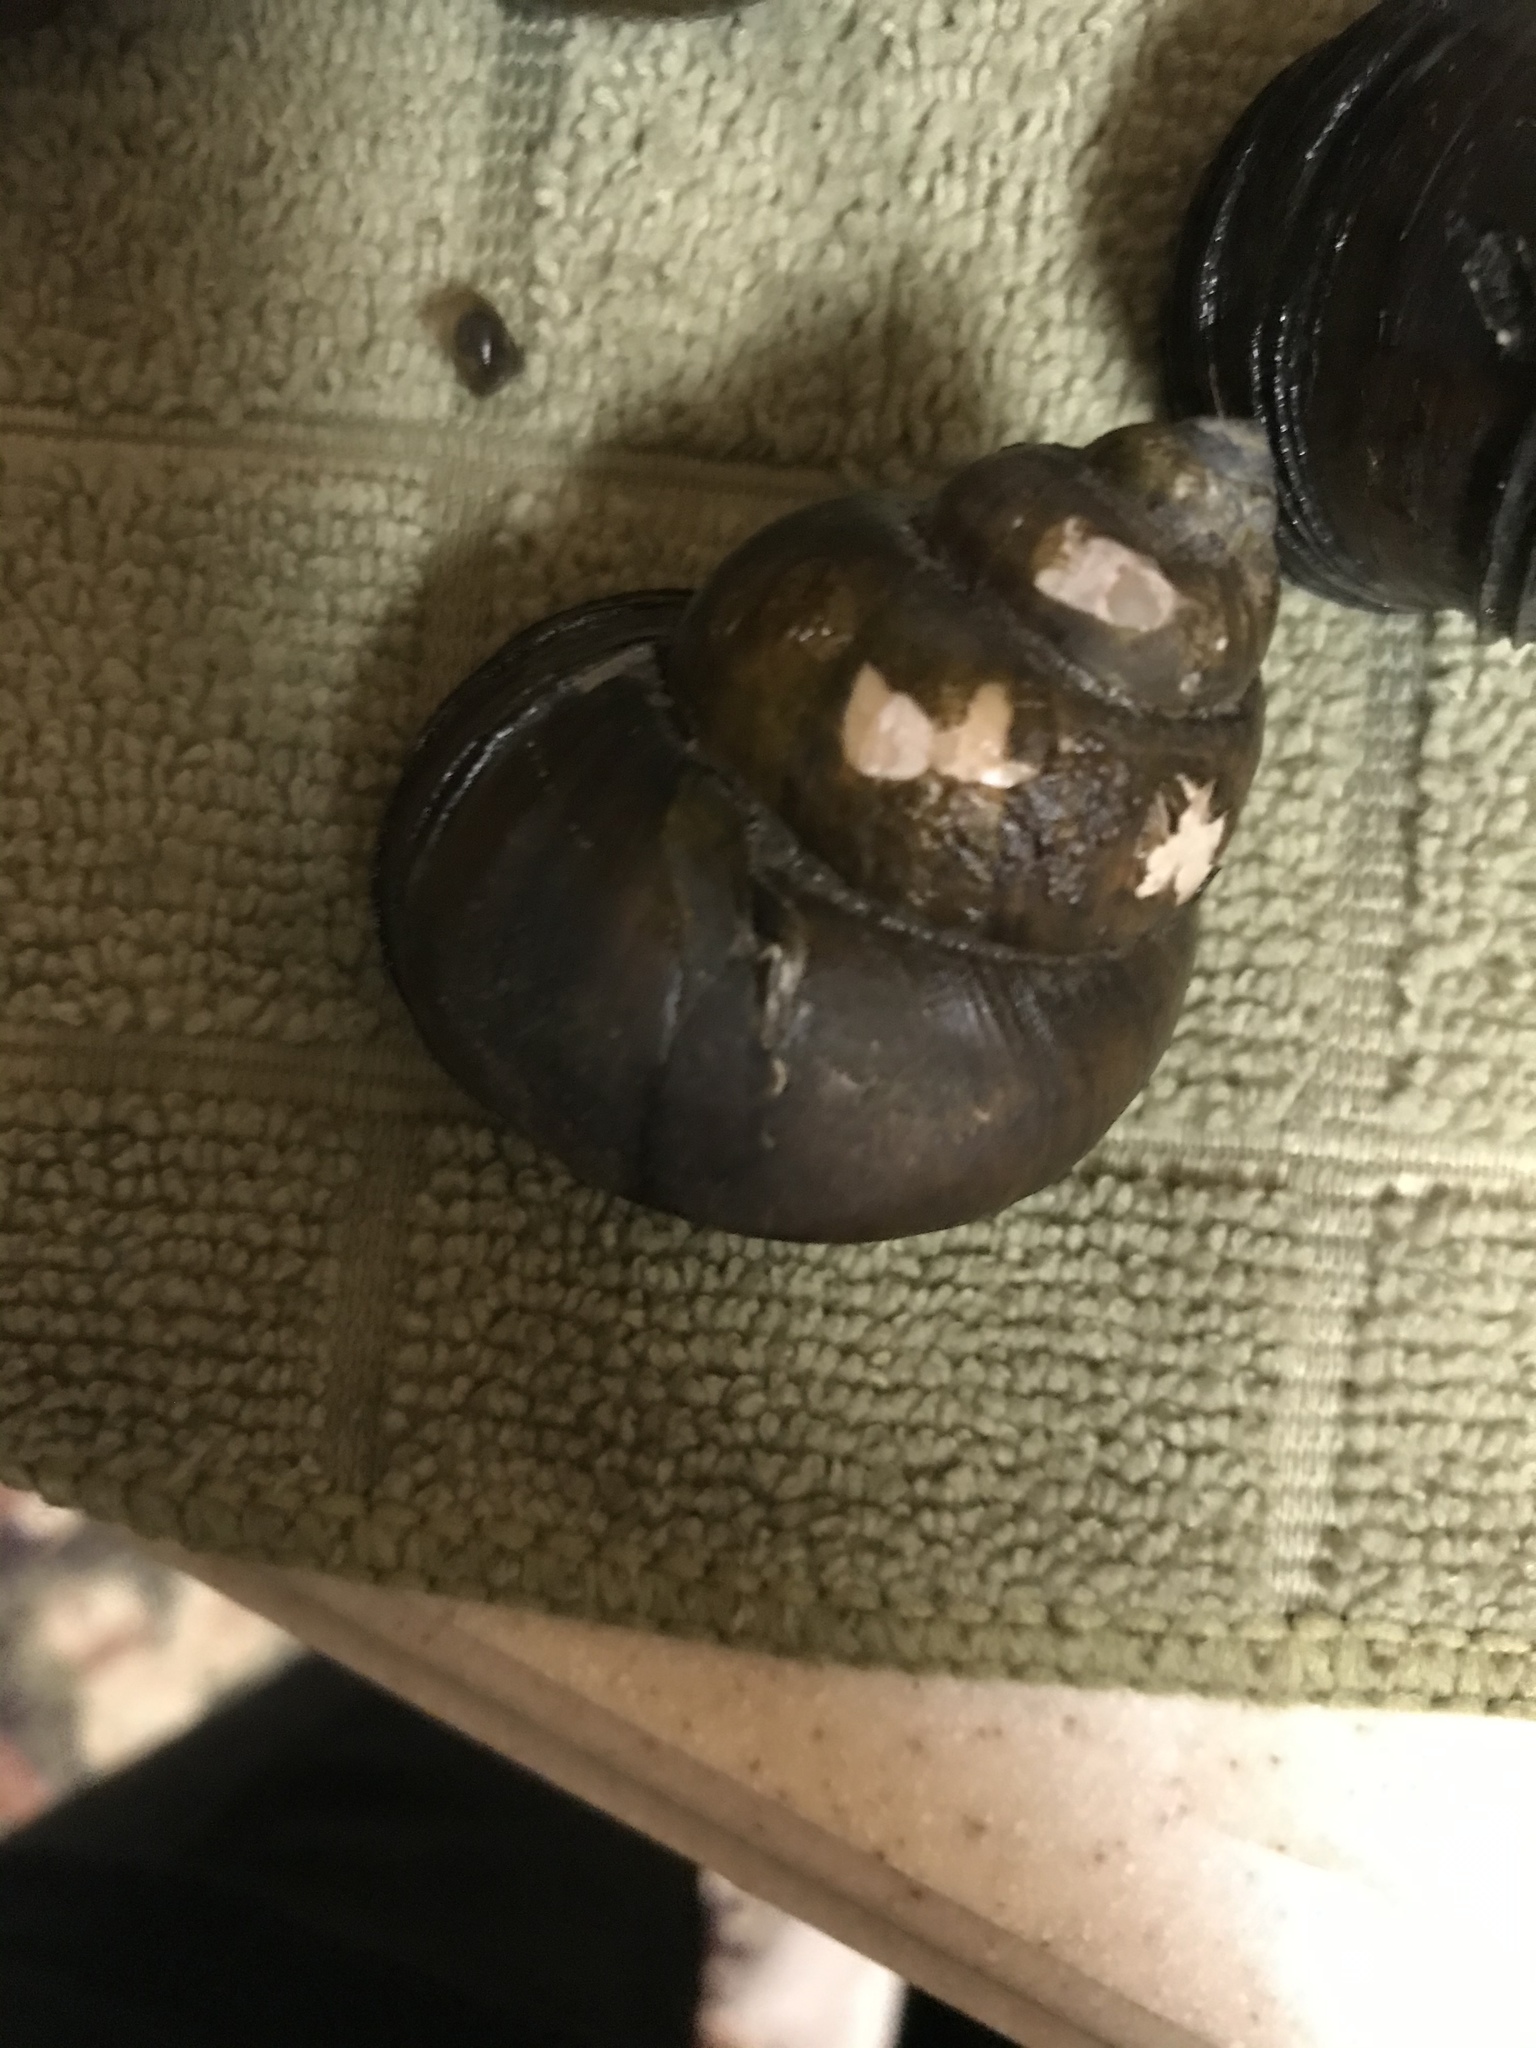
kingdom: Animalia
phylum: Mollusca
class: Gastropoda
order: Architaenioglossa
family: Viviparidae
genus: Cipangopaludina
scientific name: Cipangopaludina chinensis
